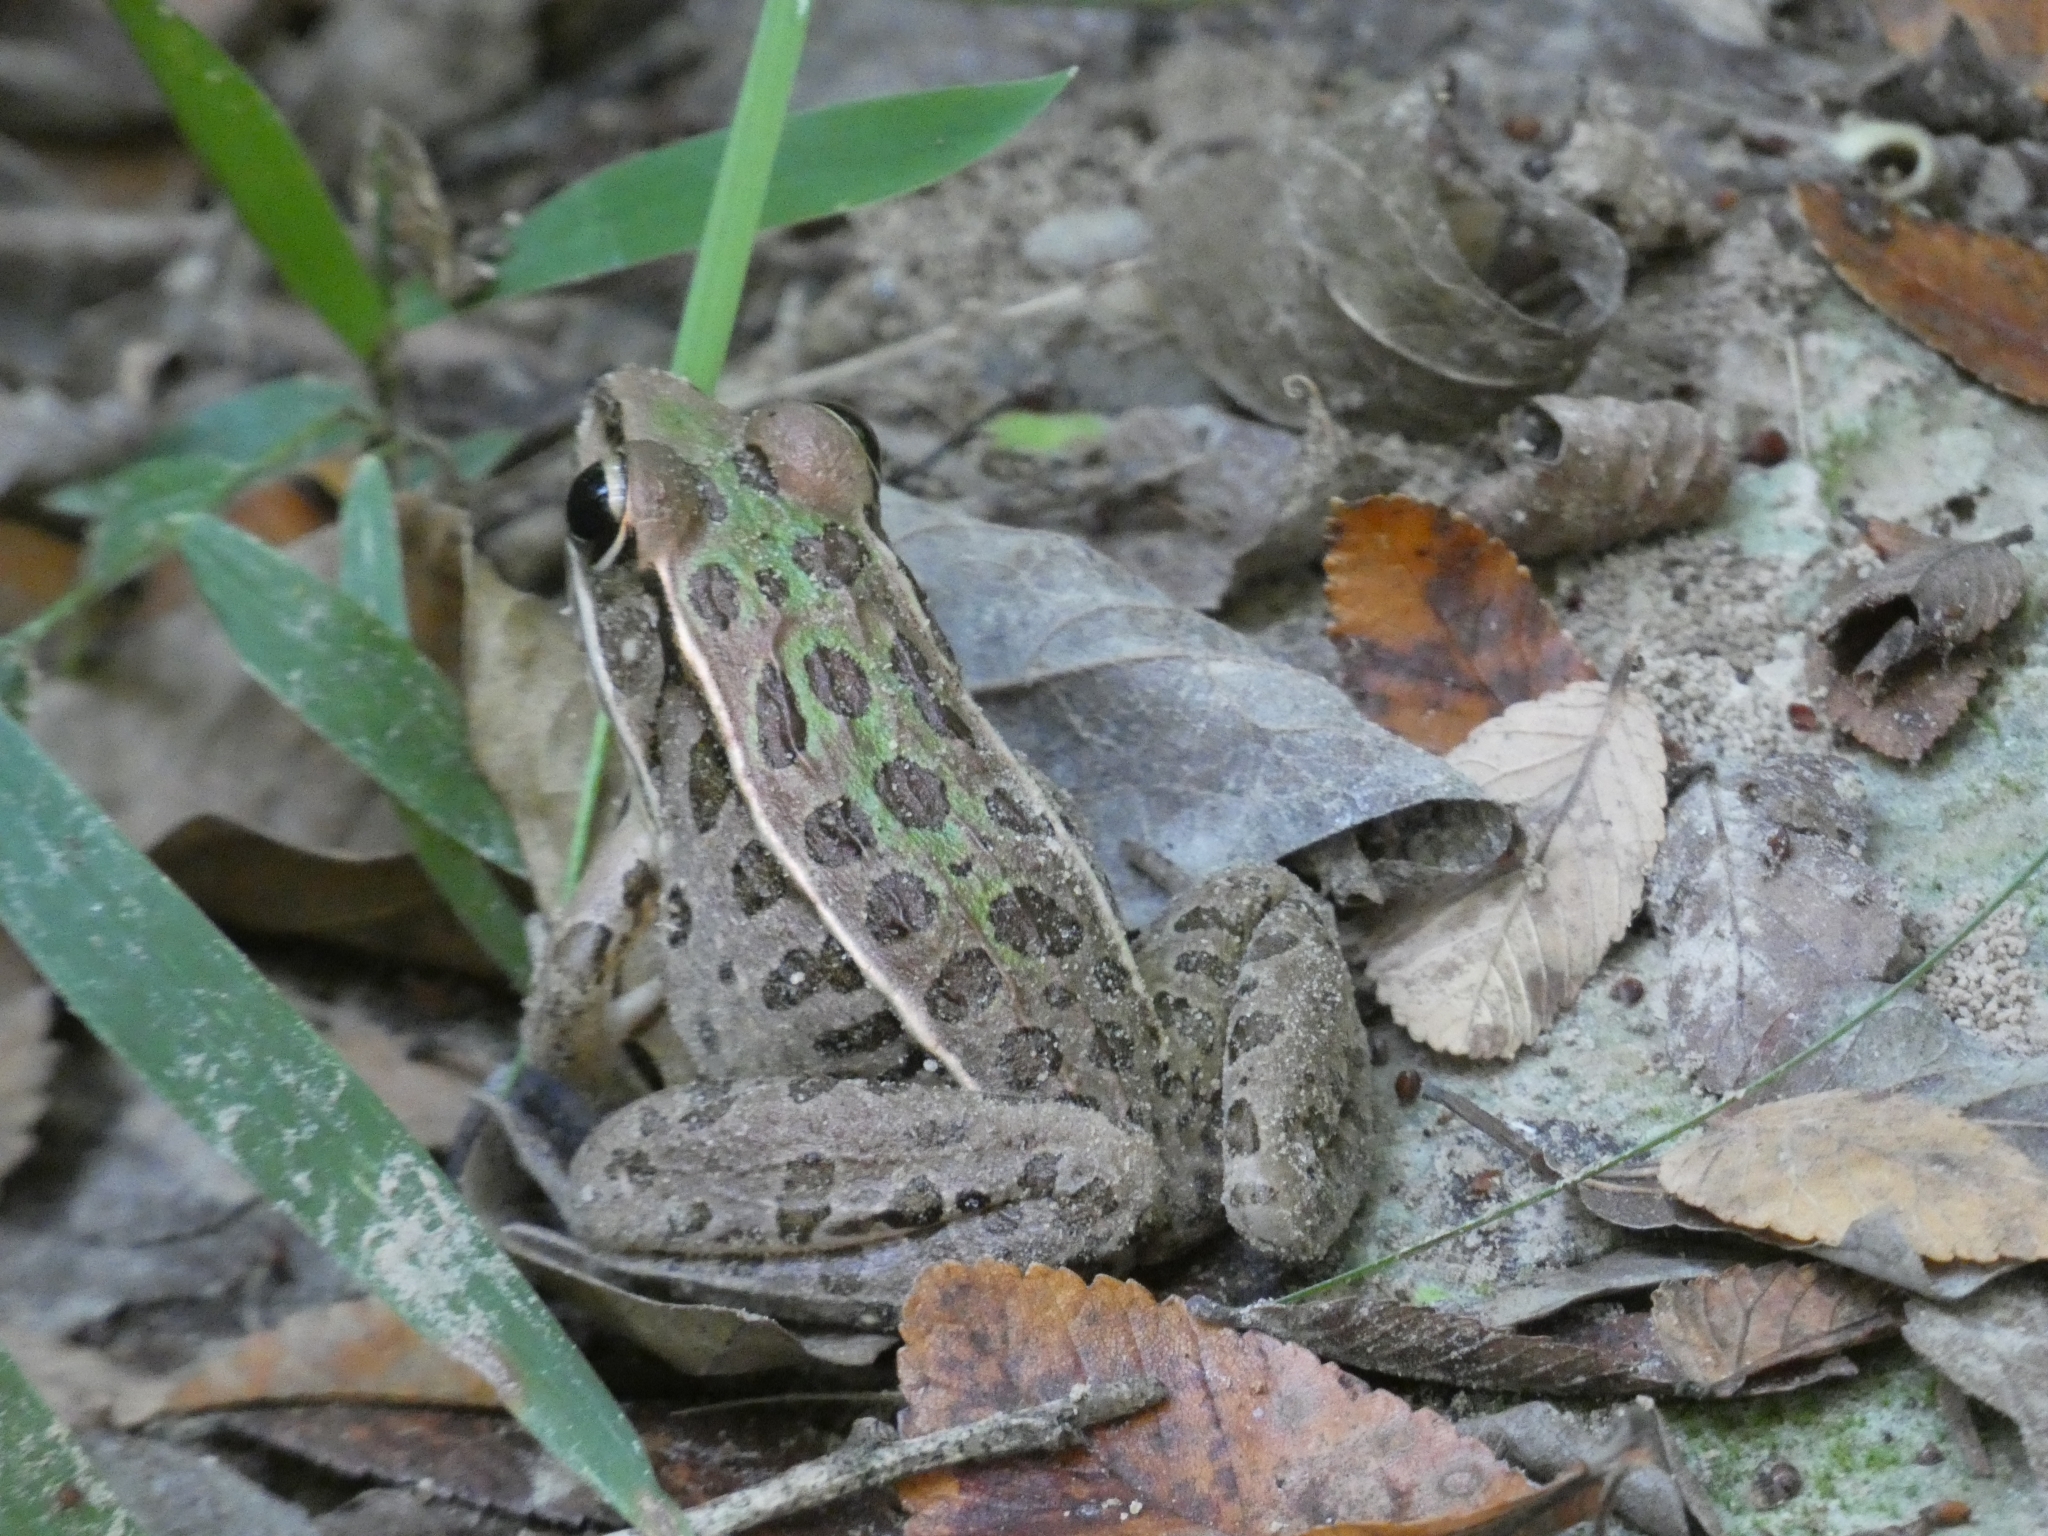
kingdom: Animalia
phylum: Chordata
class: Amphibia
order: Anura
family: Ranidae
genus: Lithobates
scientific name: Lithobates sphenocephalus
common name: Southern leopard frog
